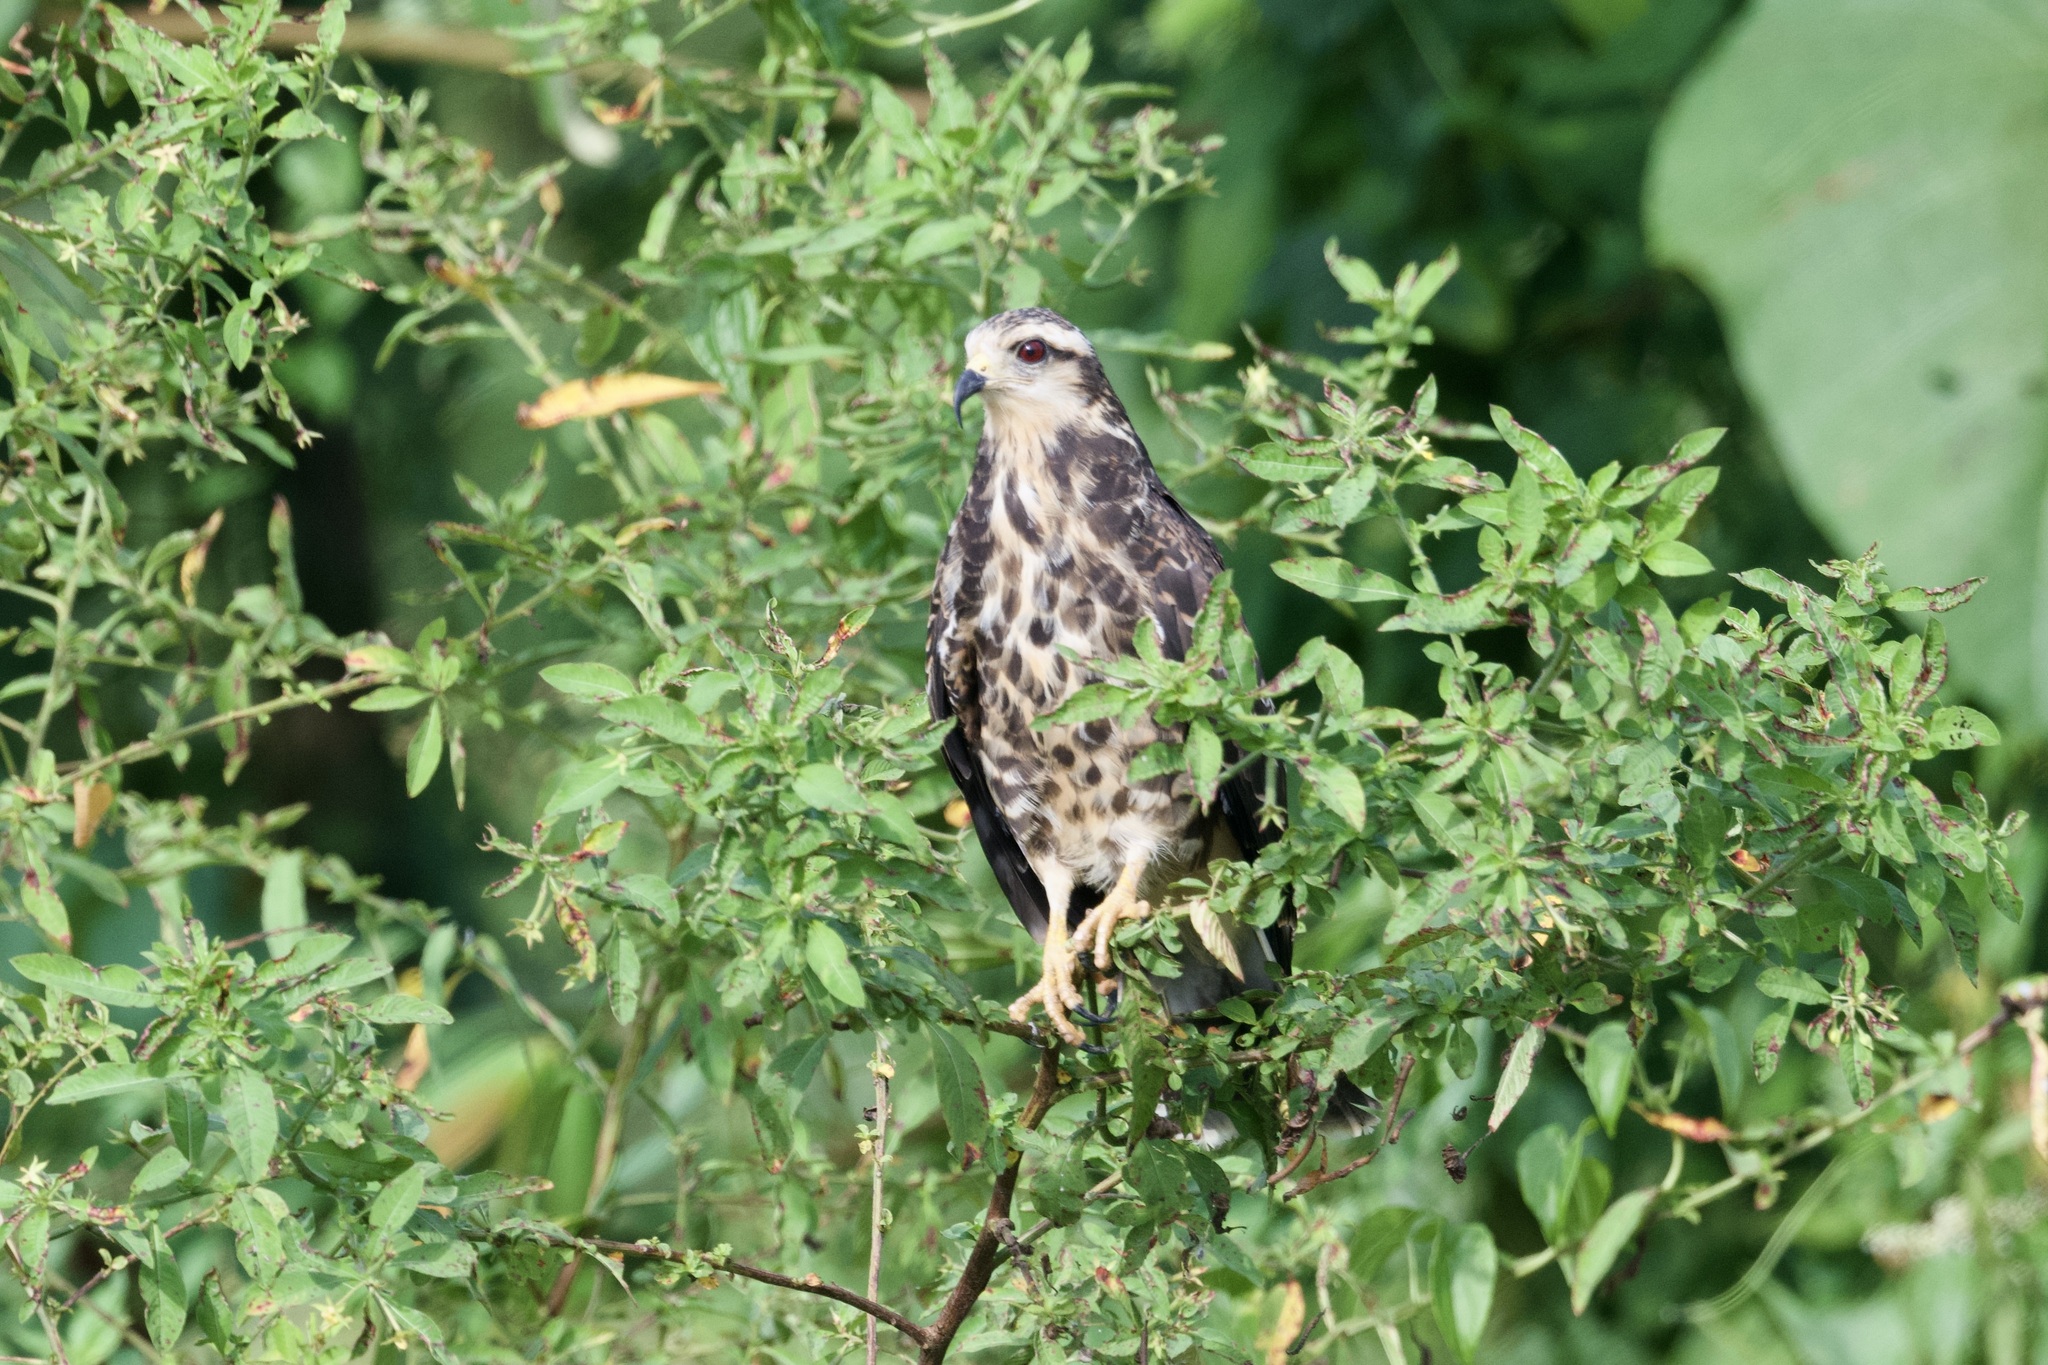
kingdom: Animalia
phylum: Chordata
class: Aves
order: Accipitriformes
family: Accipitridae
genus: Rostrhamus
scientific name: Rostrhamus sociabilis
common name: Snail kite
